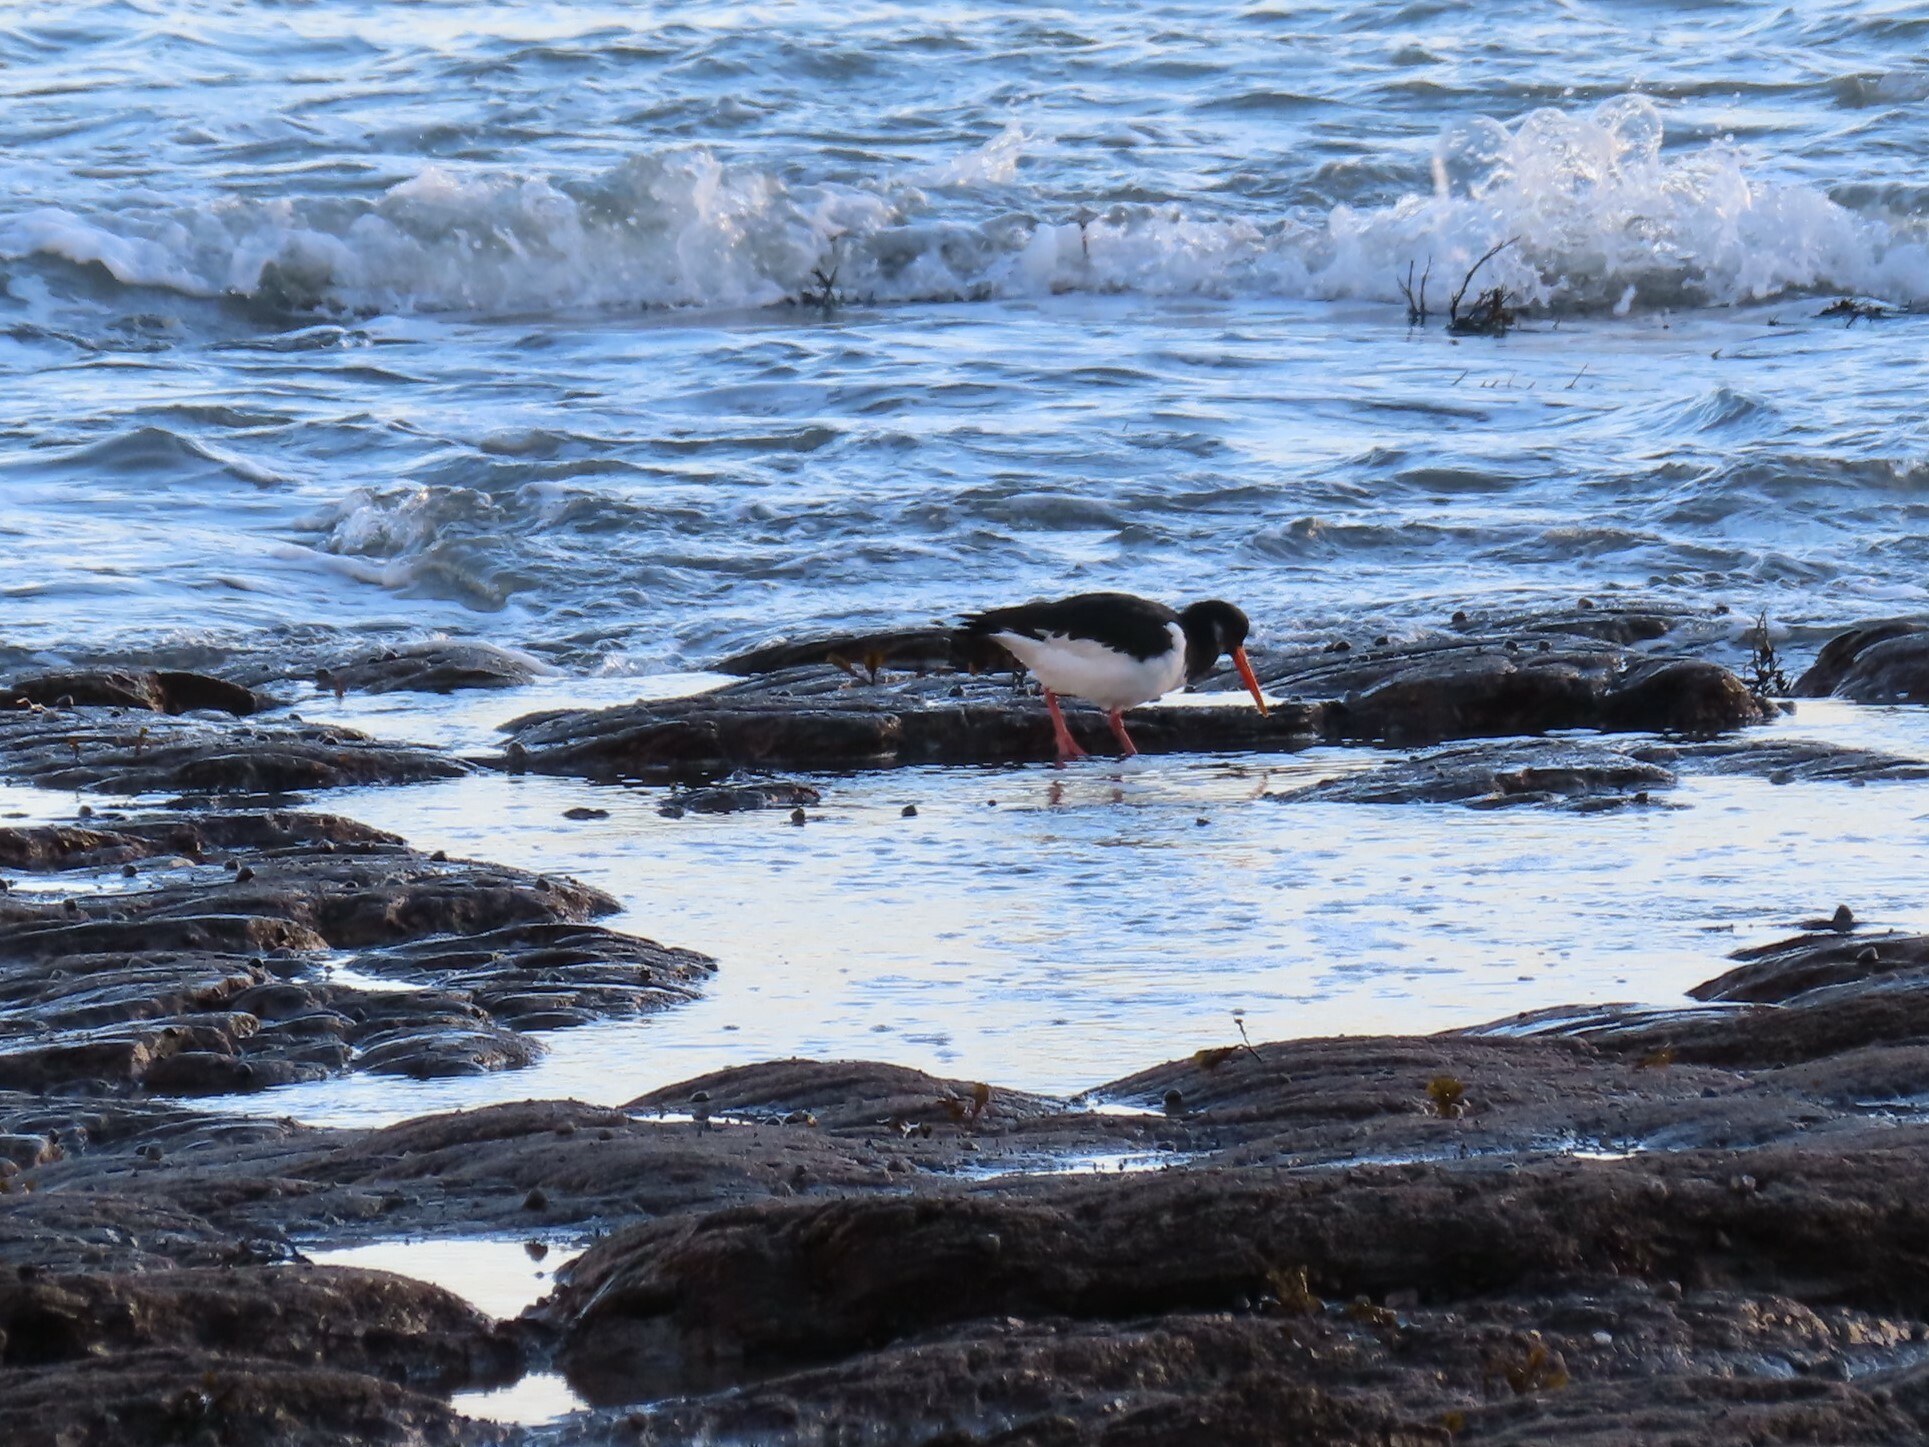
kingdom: Animalia
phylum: Chordata
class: Aves
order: Charadriiformes
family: Haematopodidae
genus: Haematopus
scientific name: Haematopus ostralegus
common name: Eurasian oystercatcher
